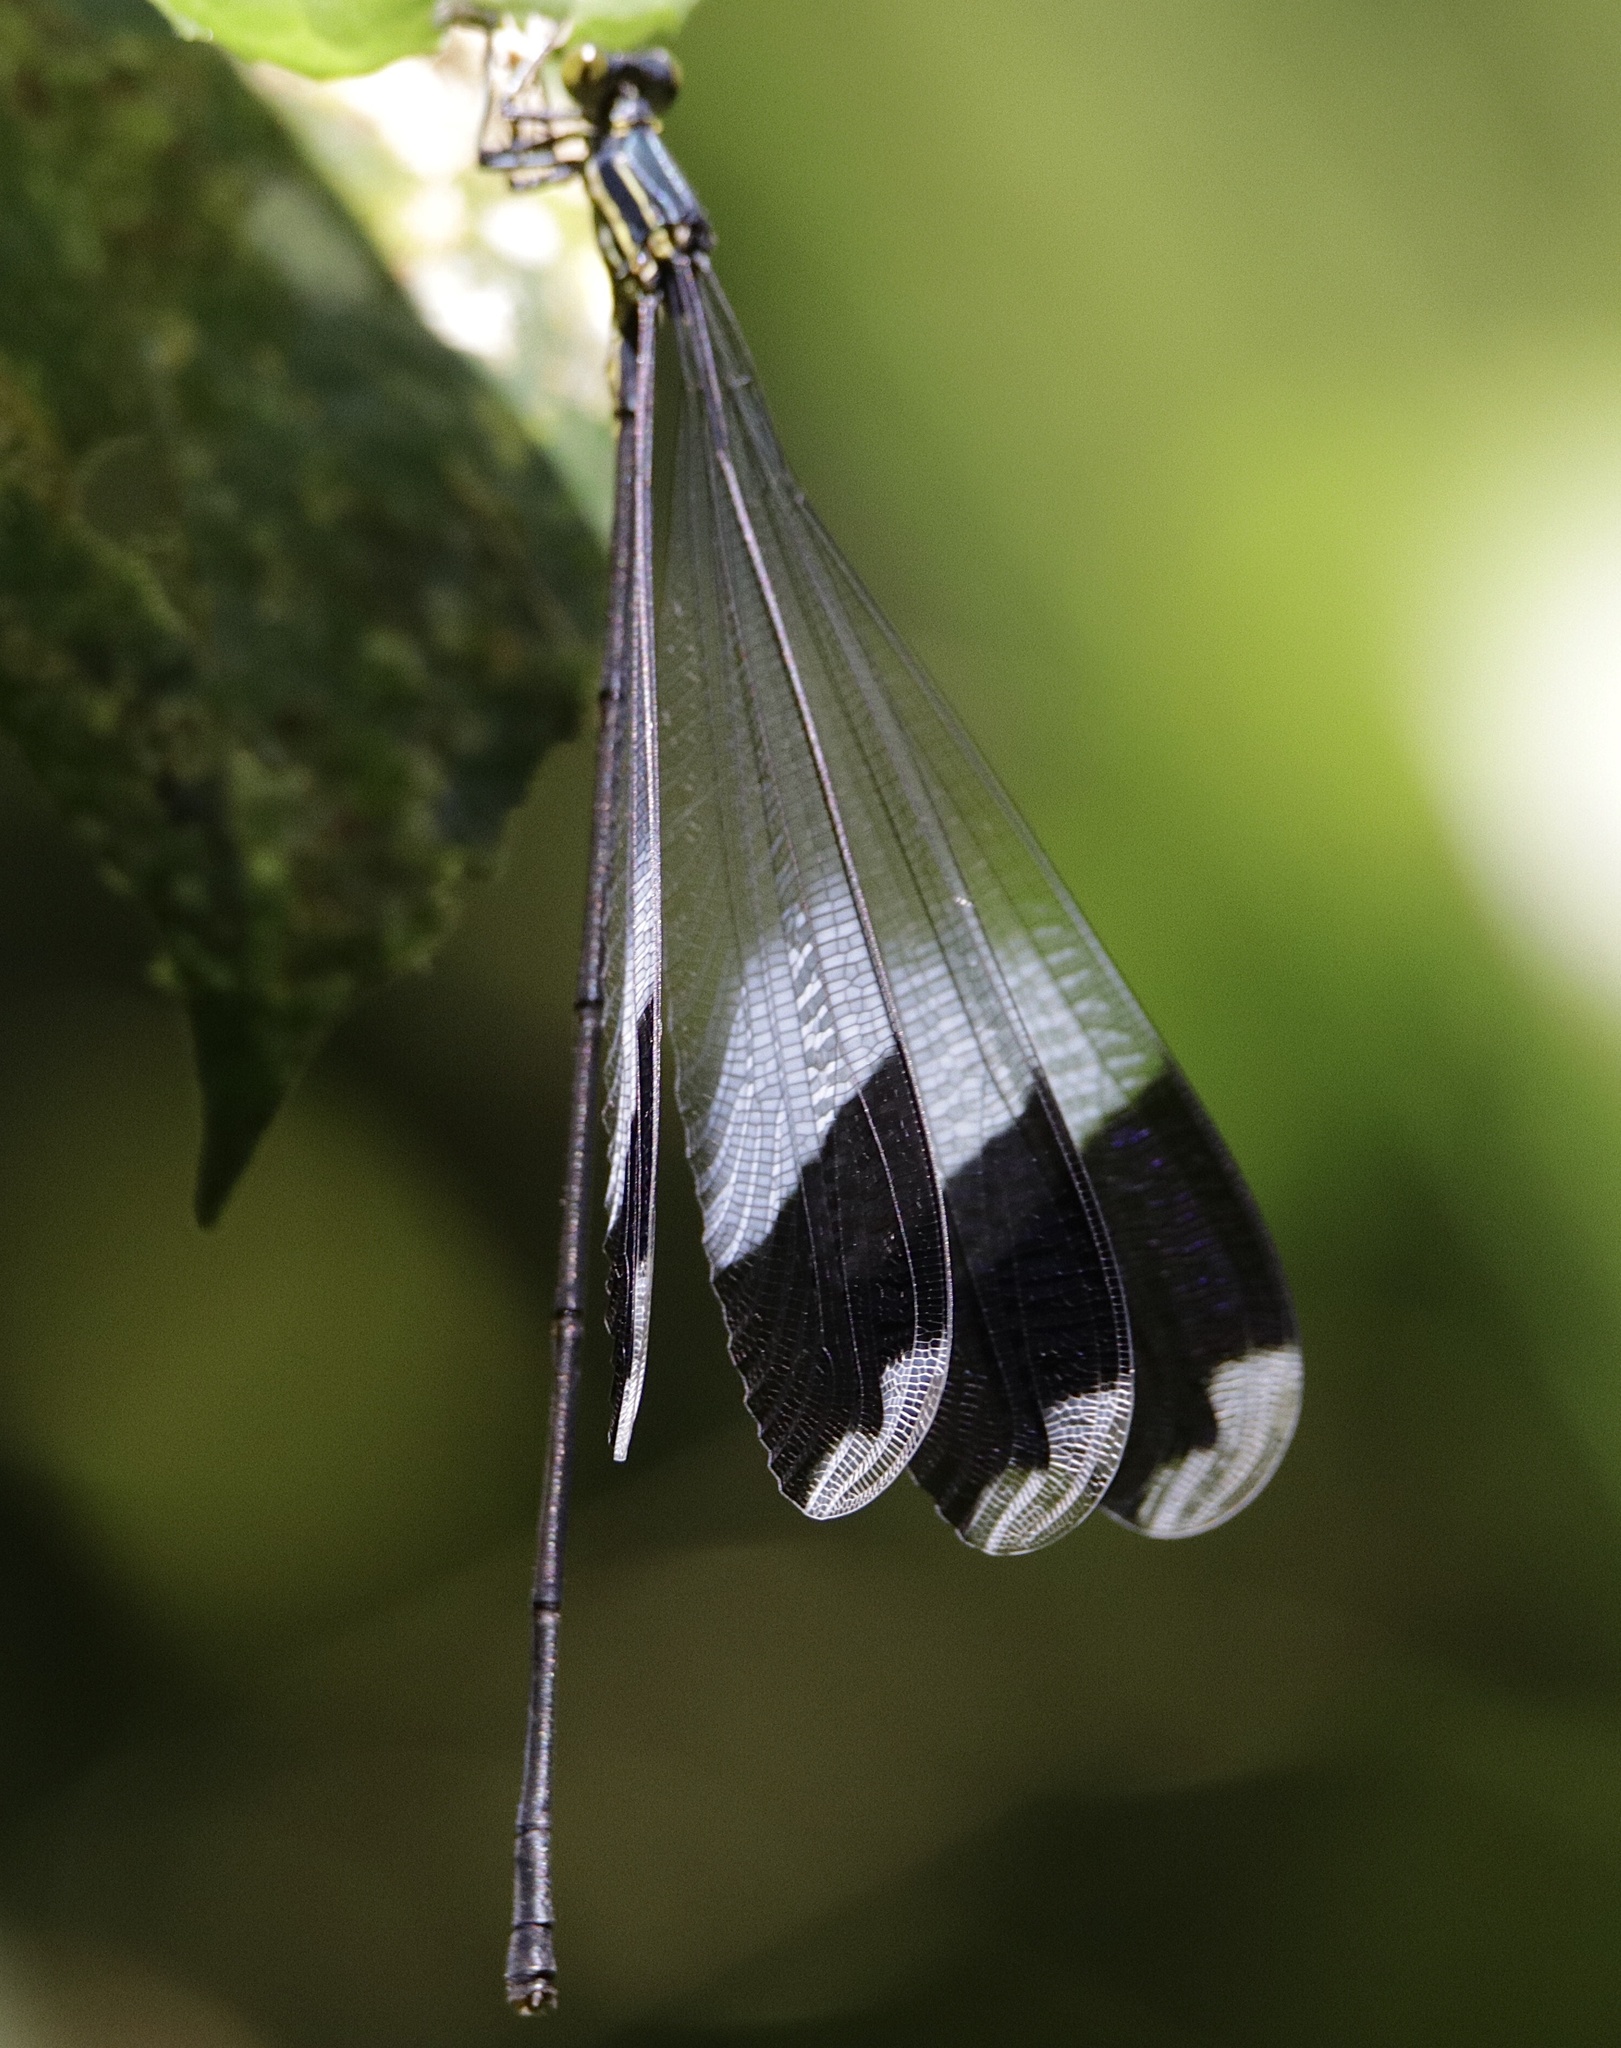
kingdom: Animalia
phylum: Arthropoda
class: Insecta
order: Odonata
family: Coenagrionidae
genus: Megaloprepus
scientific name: Megaloprepus caerulatus
